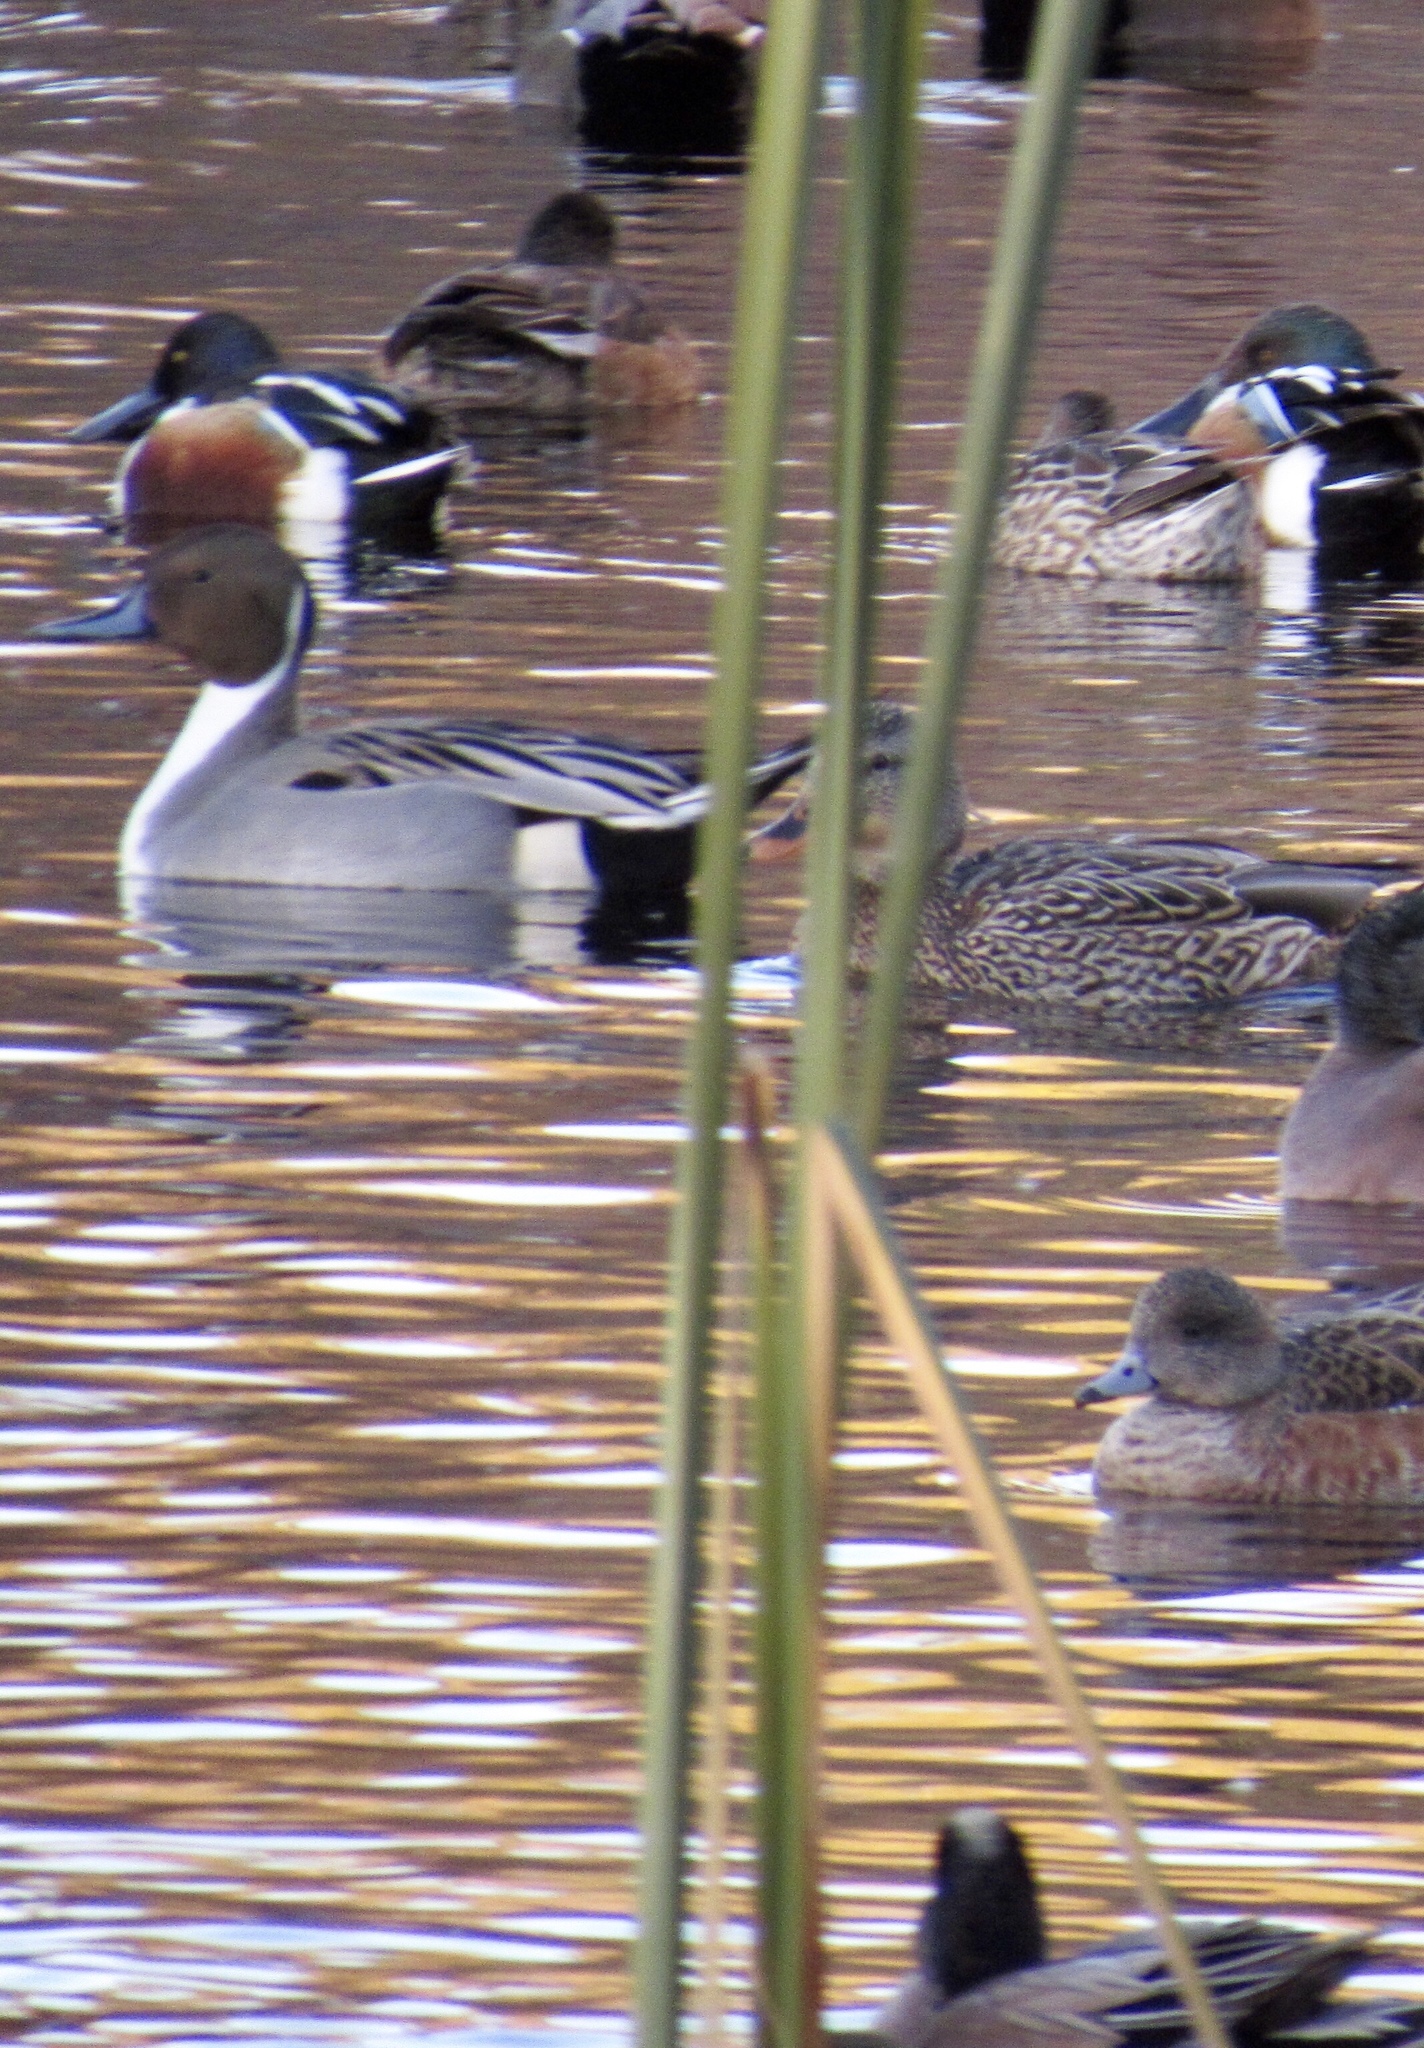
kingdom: Animalia
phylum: Chordata
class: Aves
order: Anseriformes
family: Anatidae
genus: Anas
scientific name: Anas acuta
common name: Northern pintail
